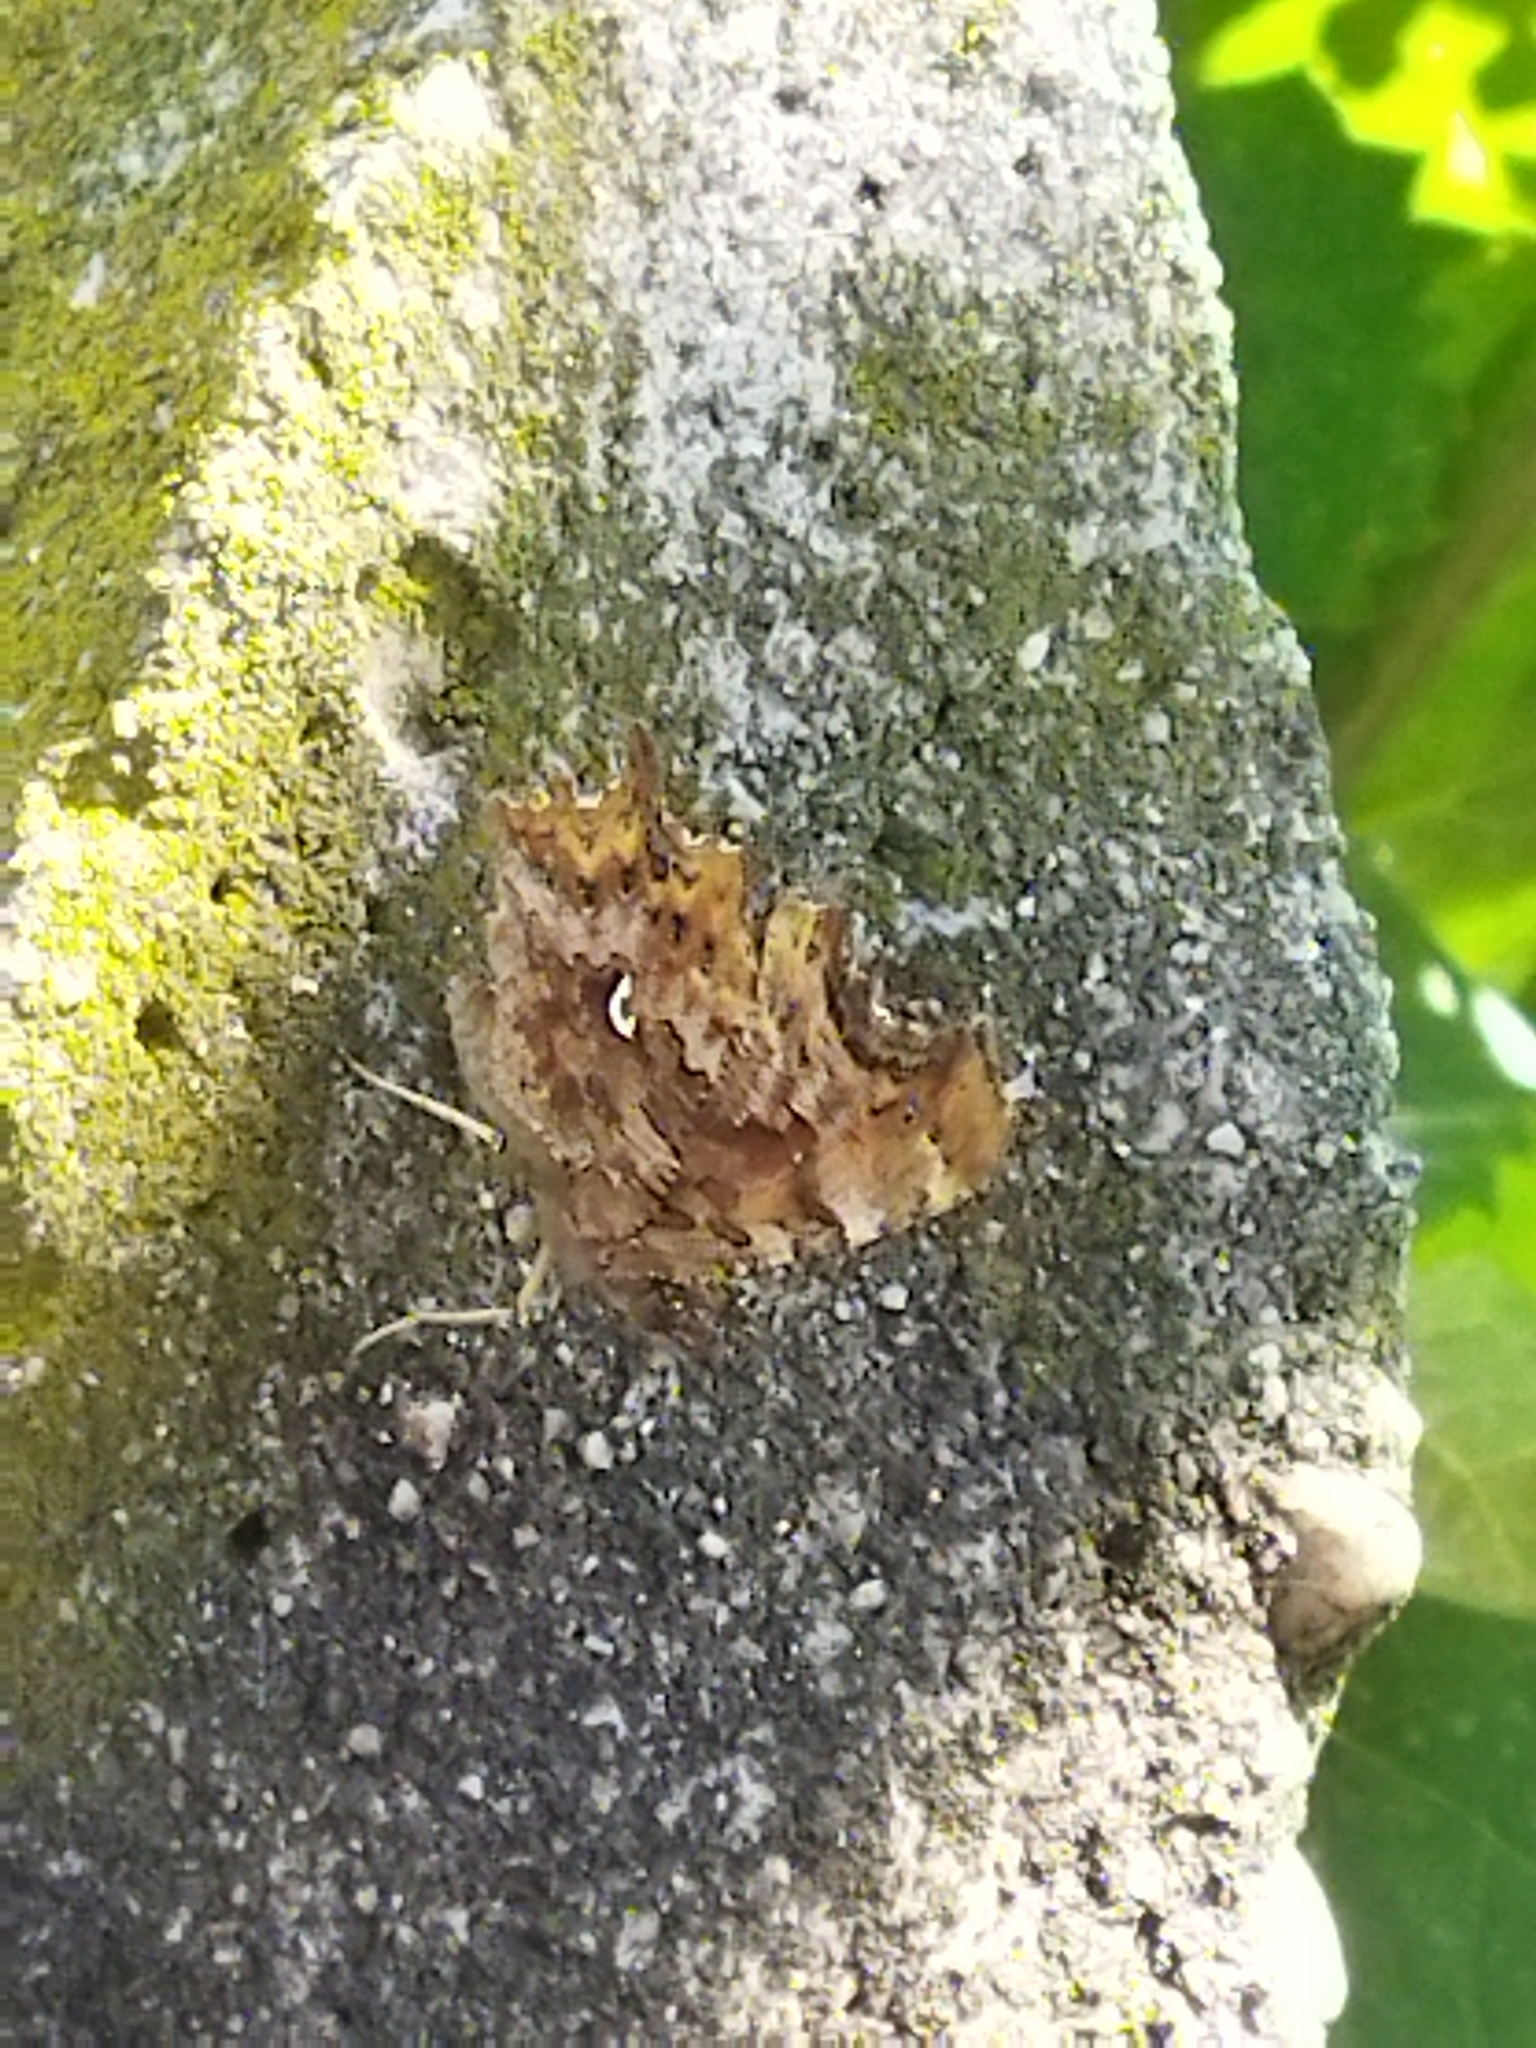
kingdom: Animalia
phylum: Arthropoda
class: Insecta
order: Lepidoptera
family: Nymphalidae
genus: Polygonia
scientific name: Polygonia c-album
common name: Comma
